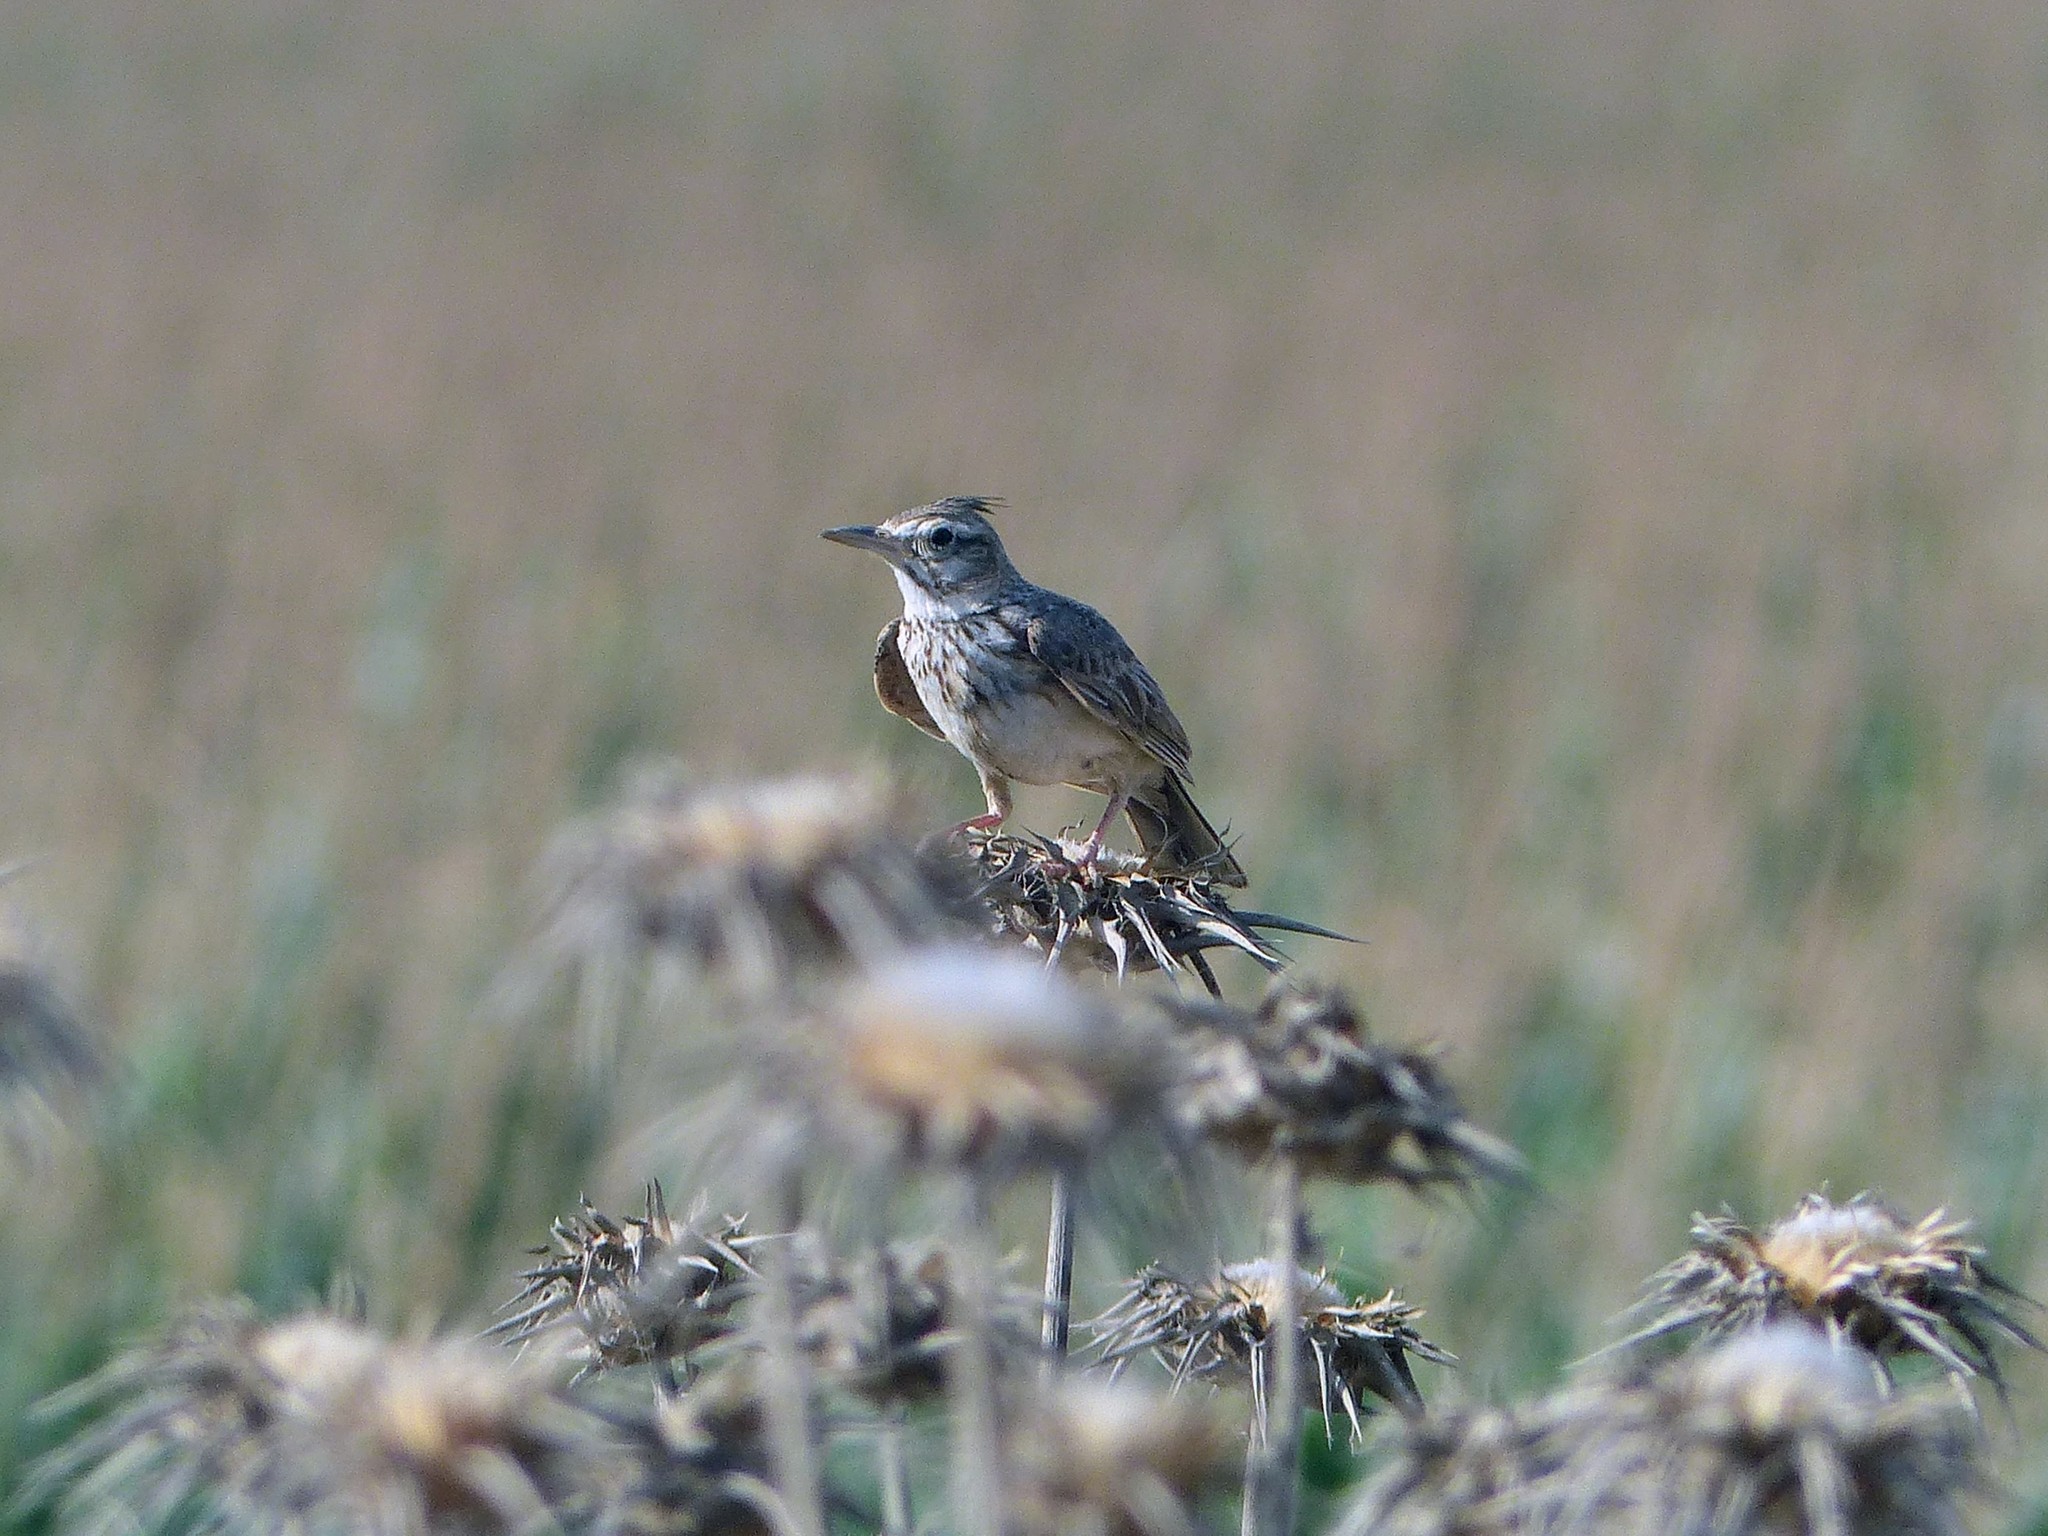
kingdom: Animalia
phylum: Chordata
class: Aves
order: Passeriformes
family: Alaudidae
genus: Galerida
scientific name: Galerida cristata
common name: Crested lark
